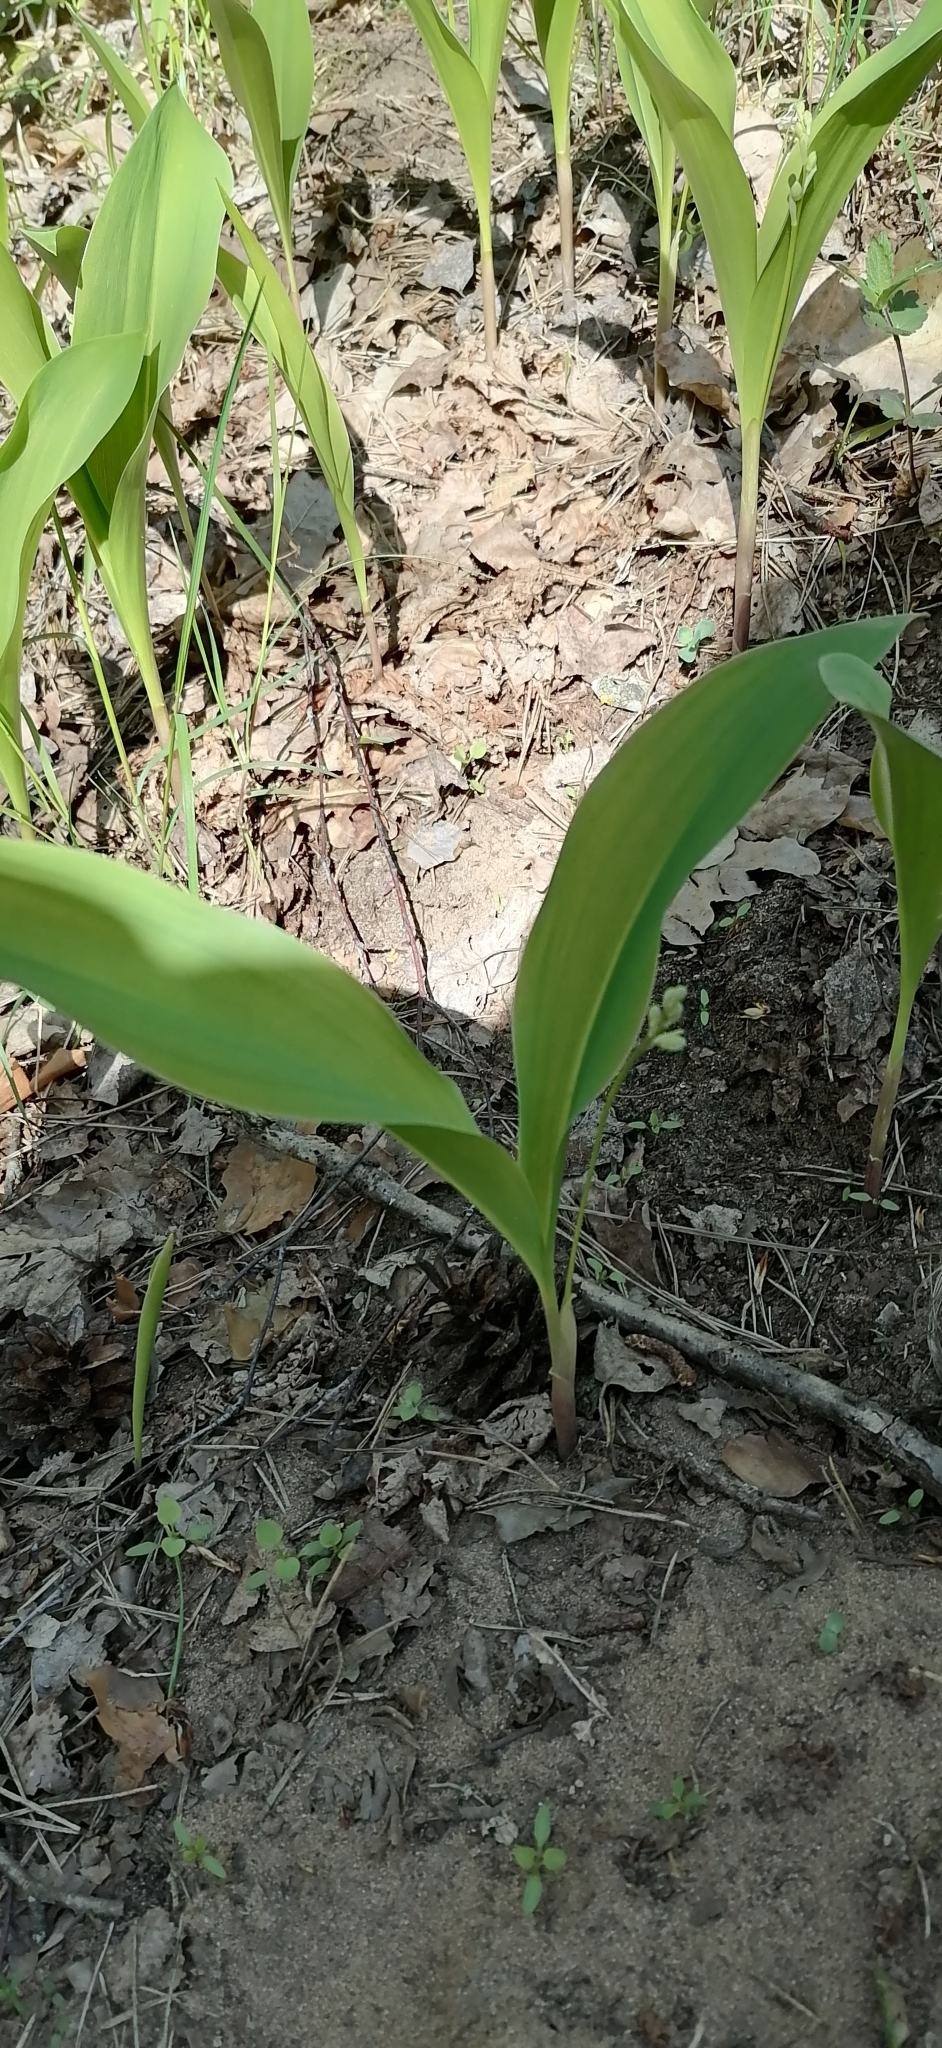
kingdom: Plantae
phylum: Tracheophyta
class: Liliopsida
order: Asparagales
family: Asparagaceae
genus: Convallaria
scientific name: Convallaria majalis
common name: Lily-of-the-valley
